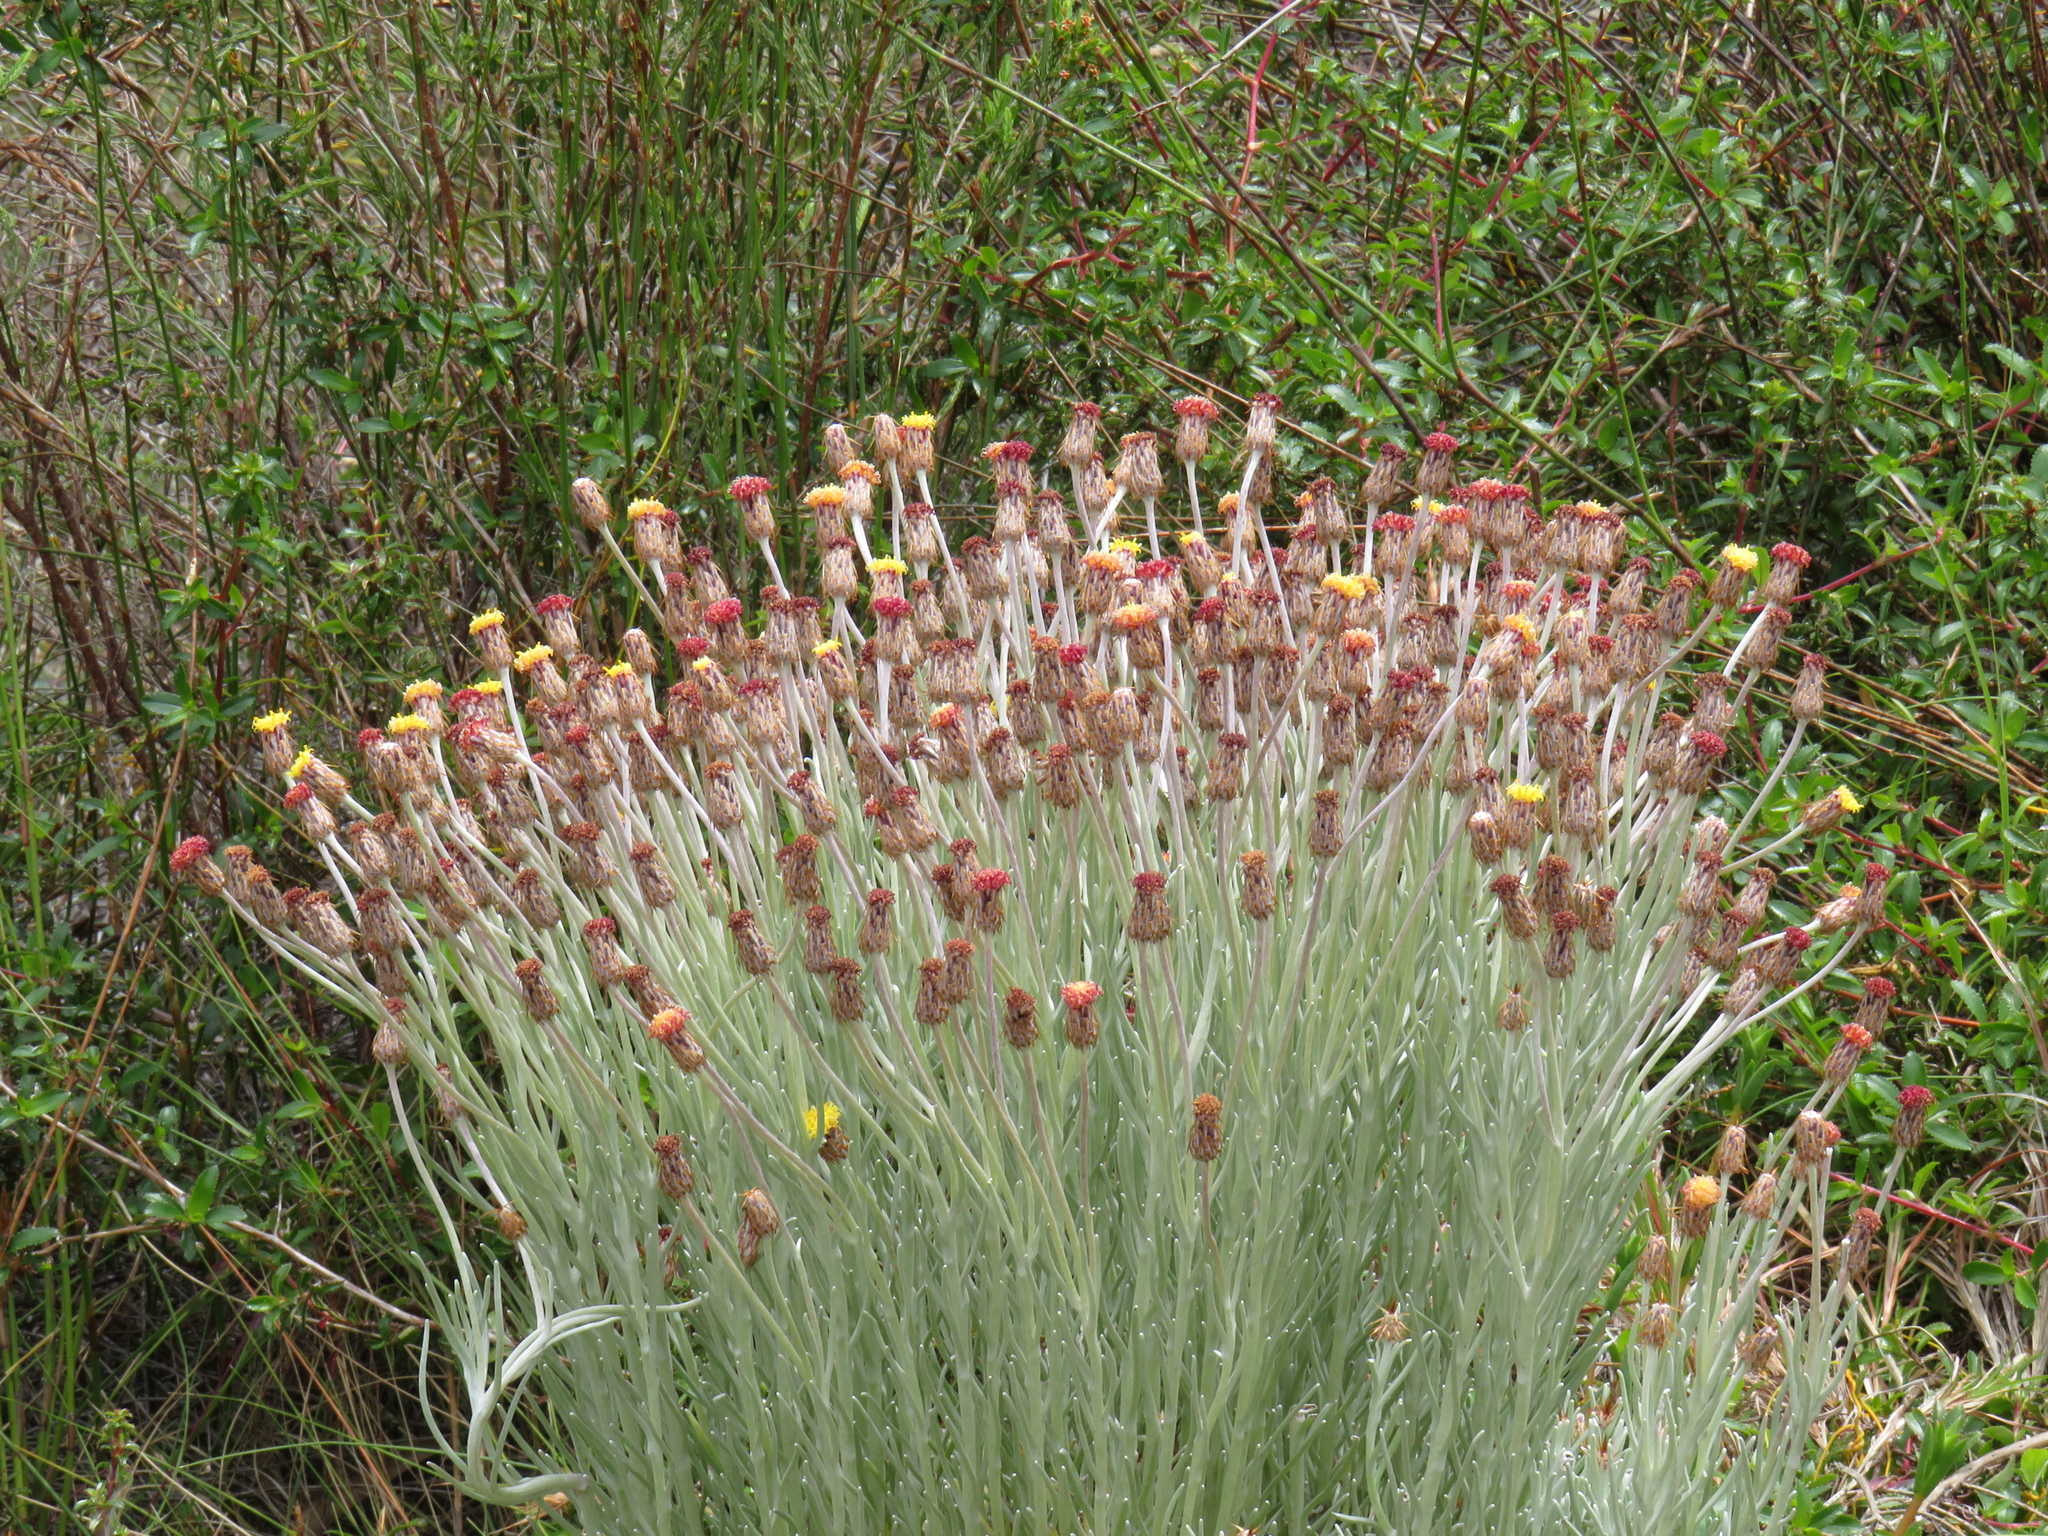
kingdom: Plantae
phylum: Tracheophyta
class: Magnoliopsida
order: Asterales
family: Asteraceae
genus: Syncarpha
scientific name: Syncarpha gnaphaloides
